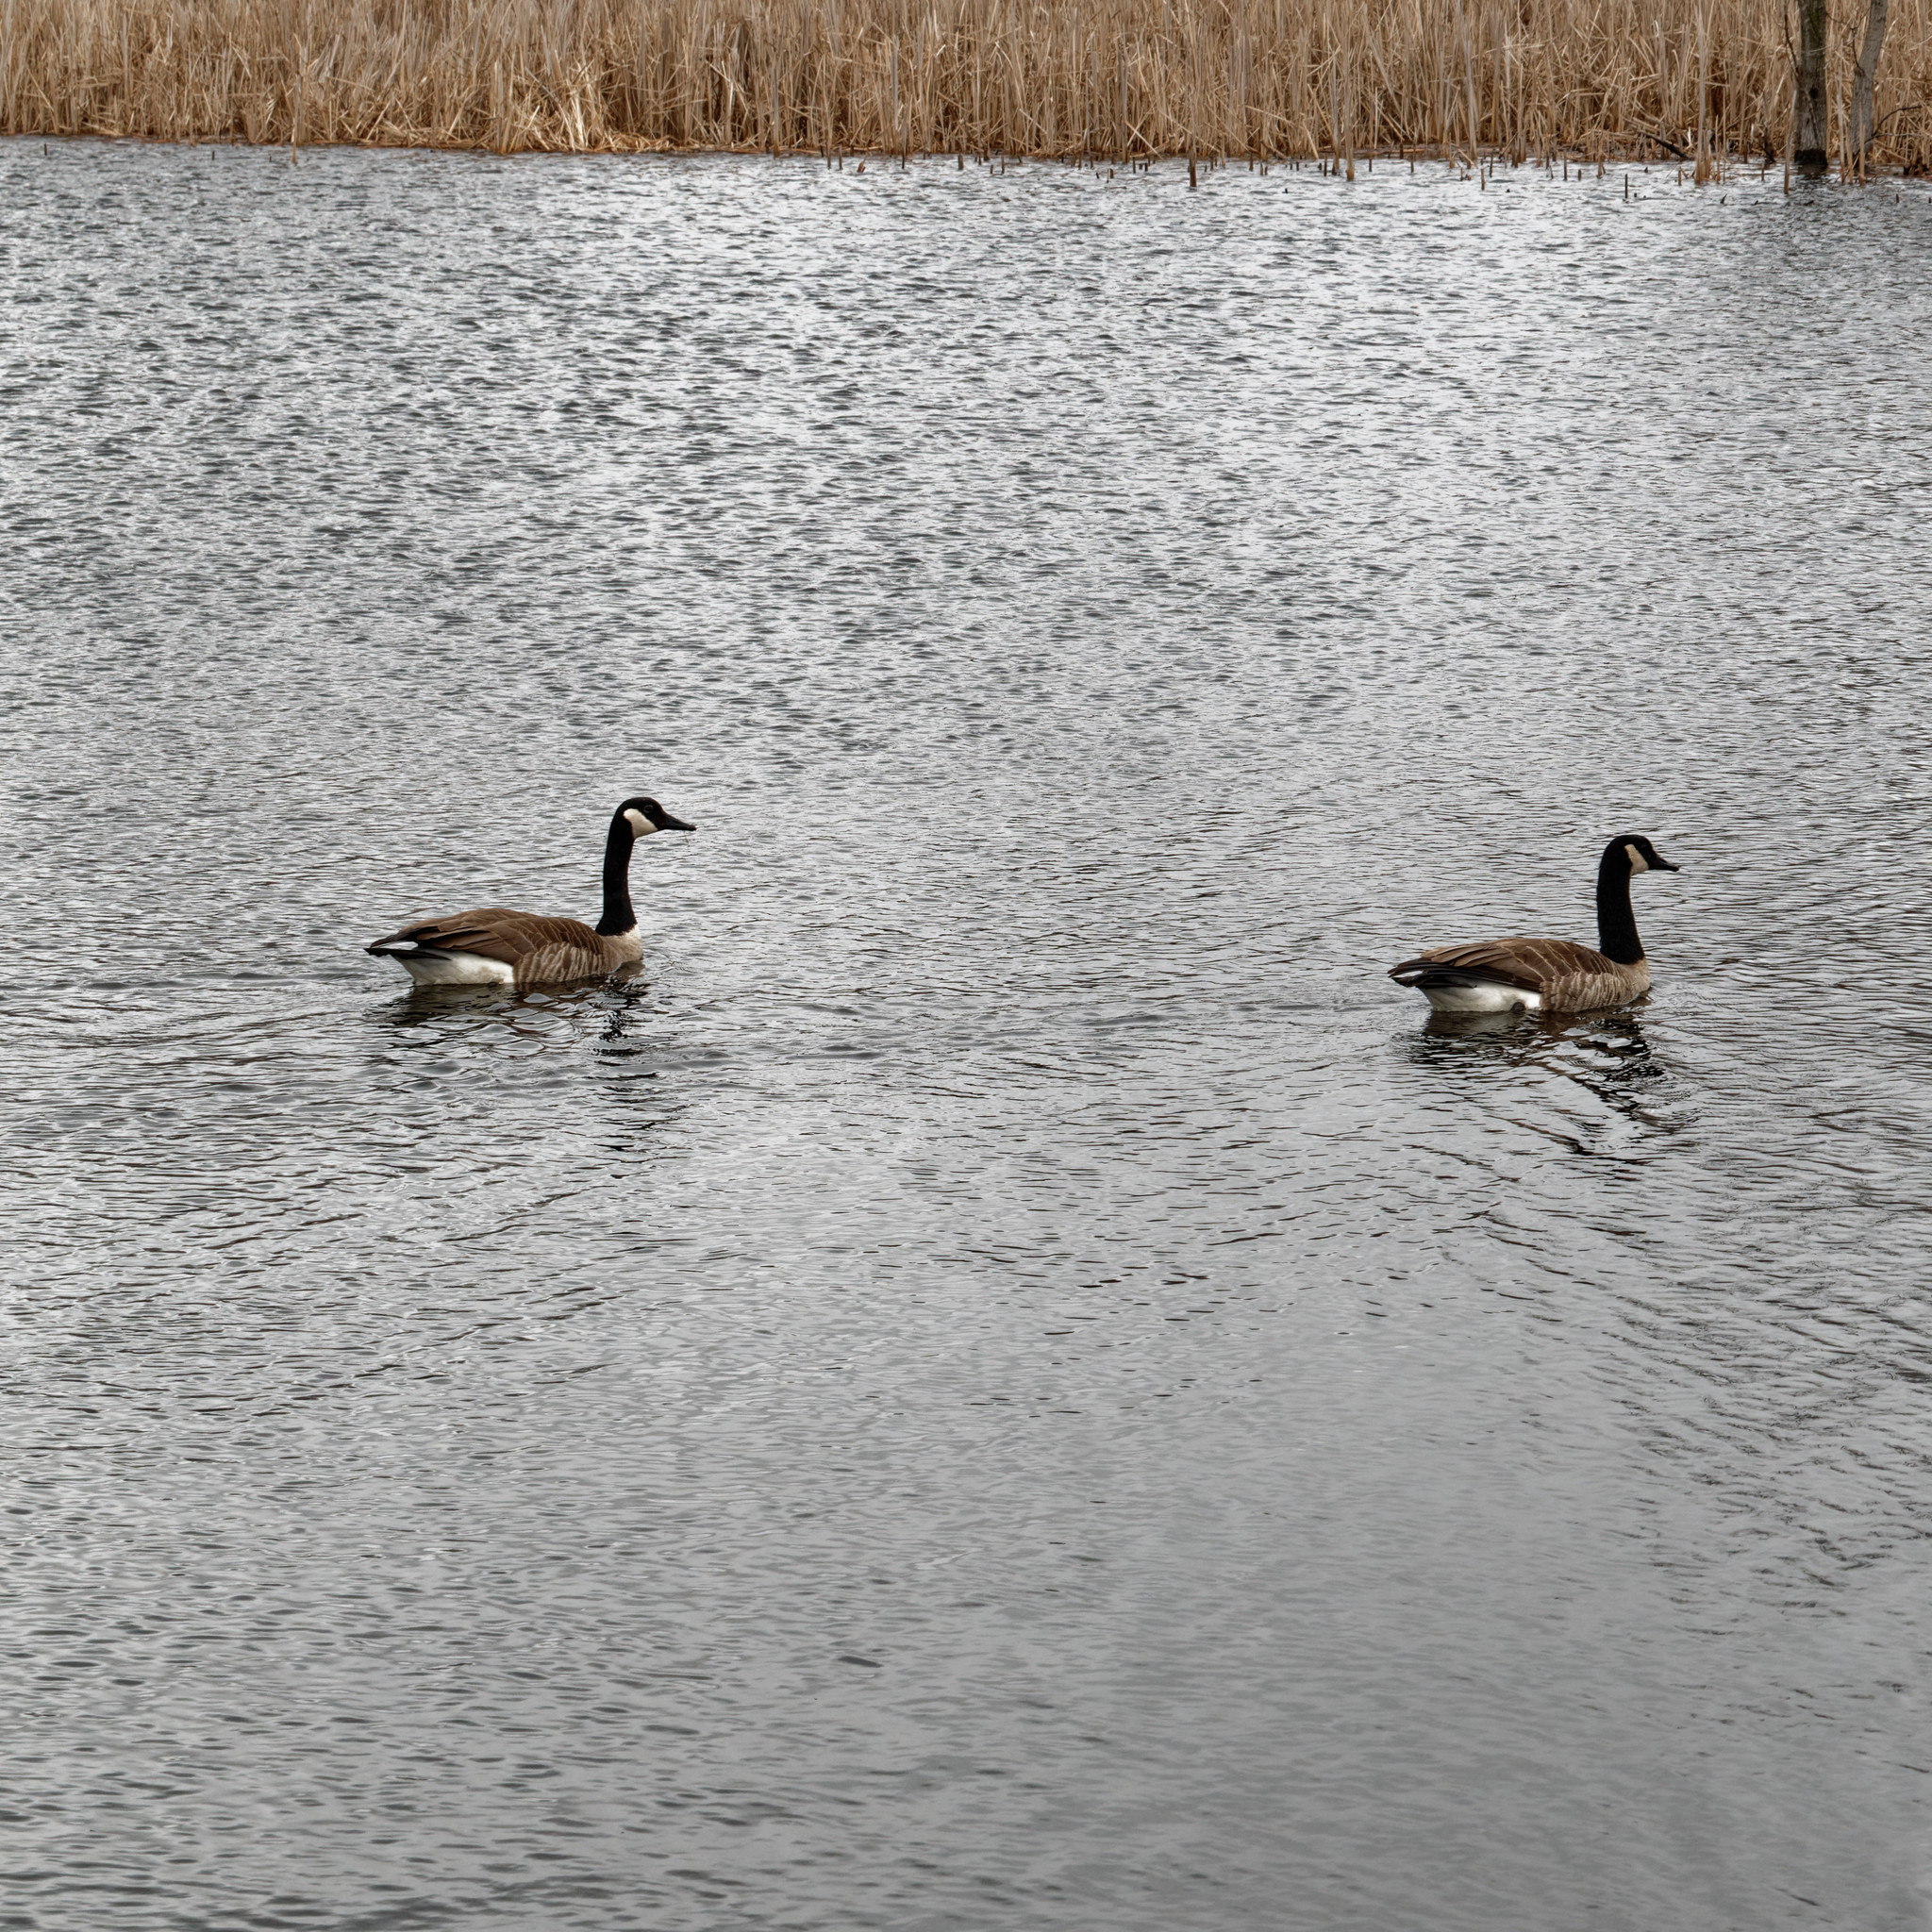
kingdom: Animalia
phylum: Chordata
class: Aves
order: Anseriformes
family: Anatidae
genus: Branta
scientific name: Branta canadensis
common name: Canada goose
